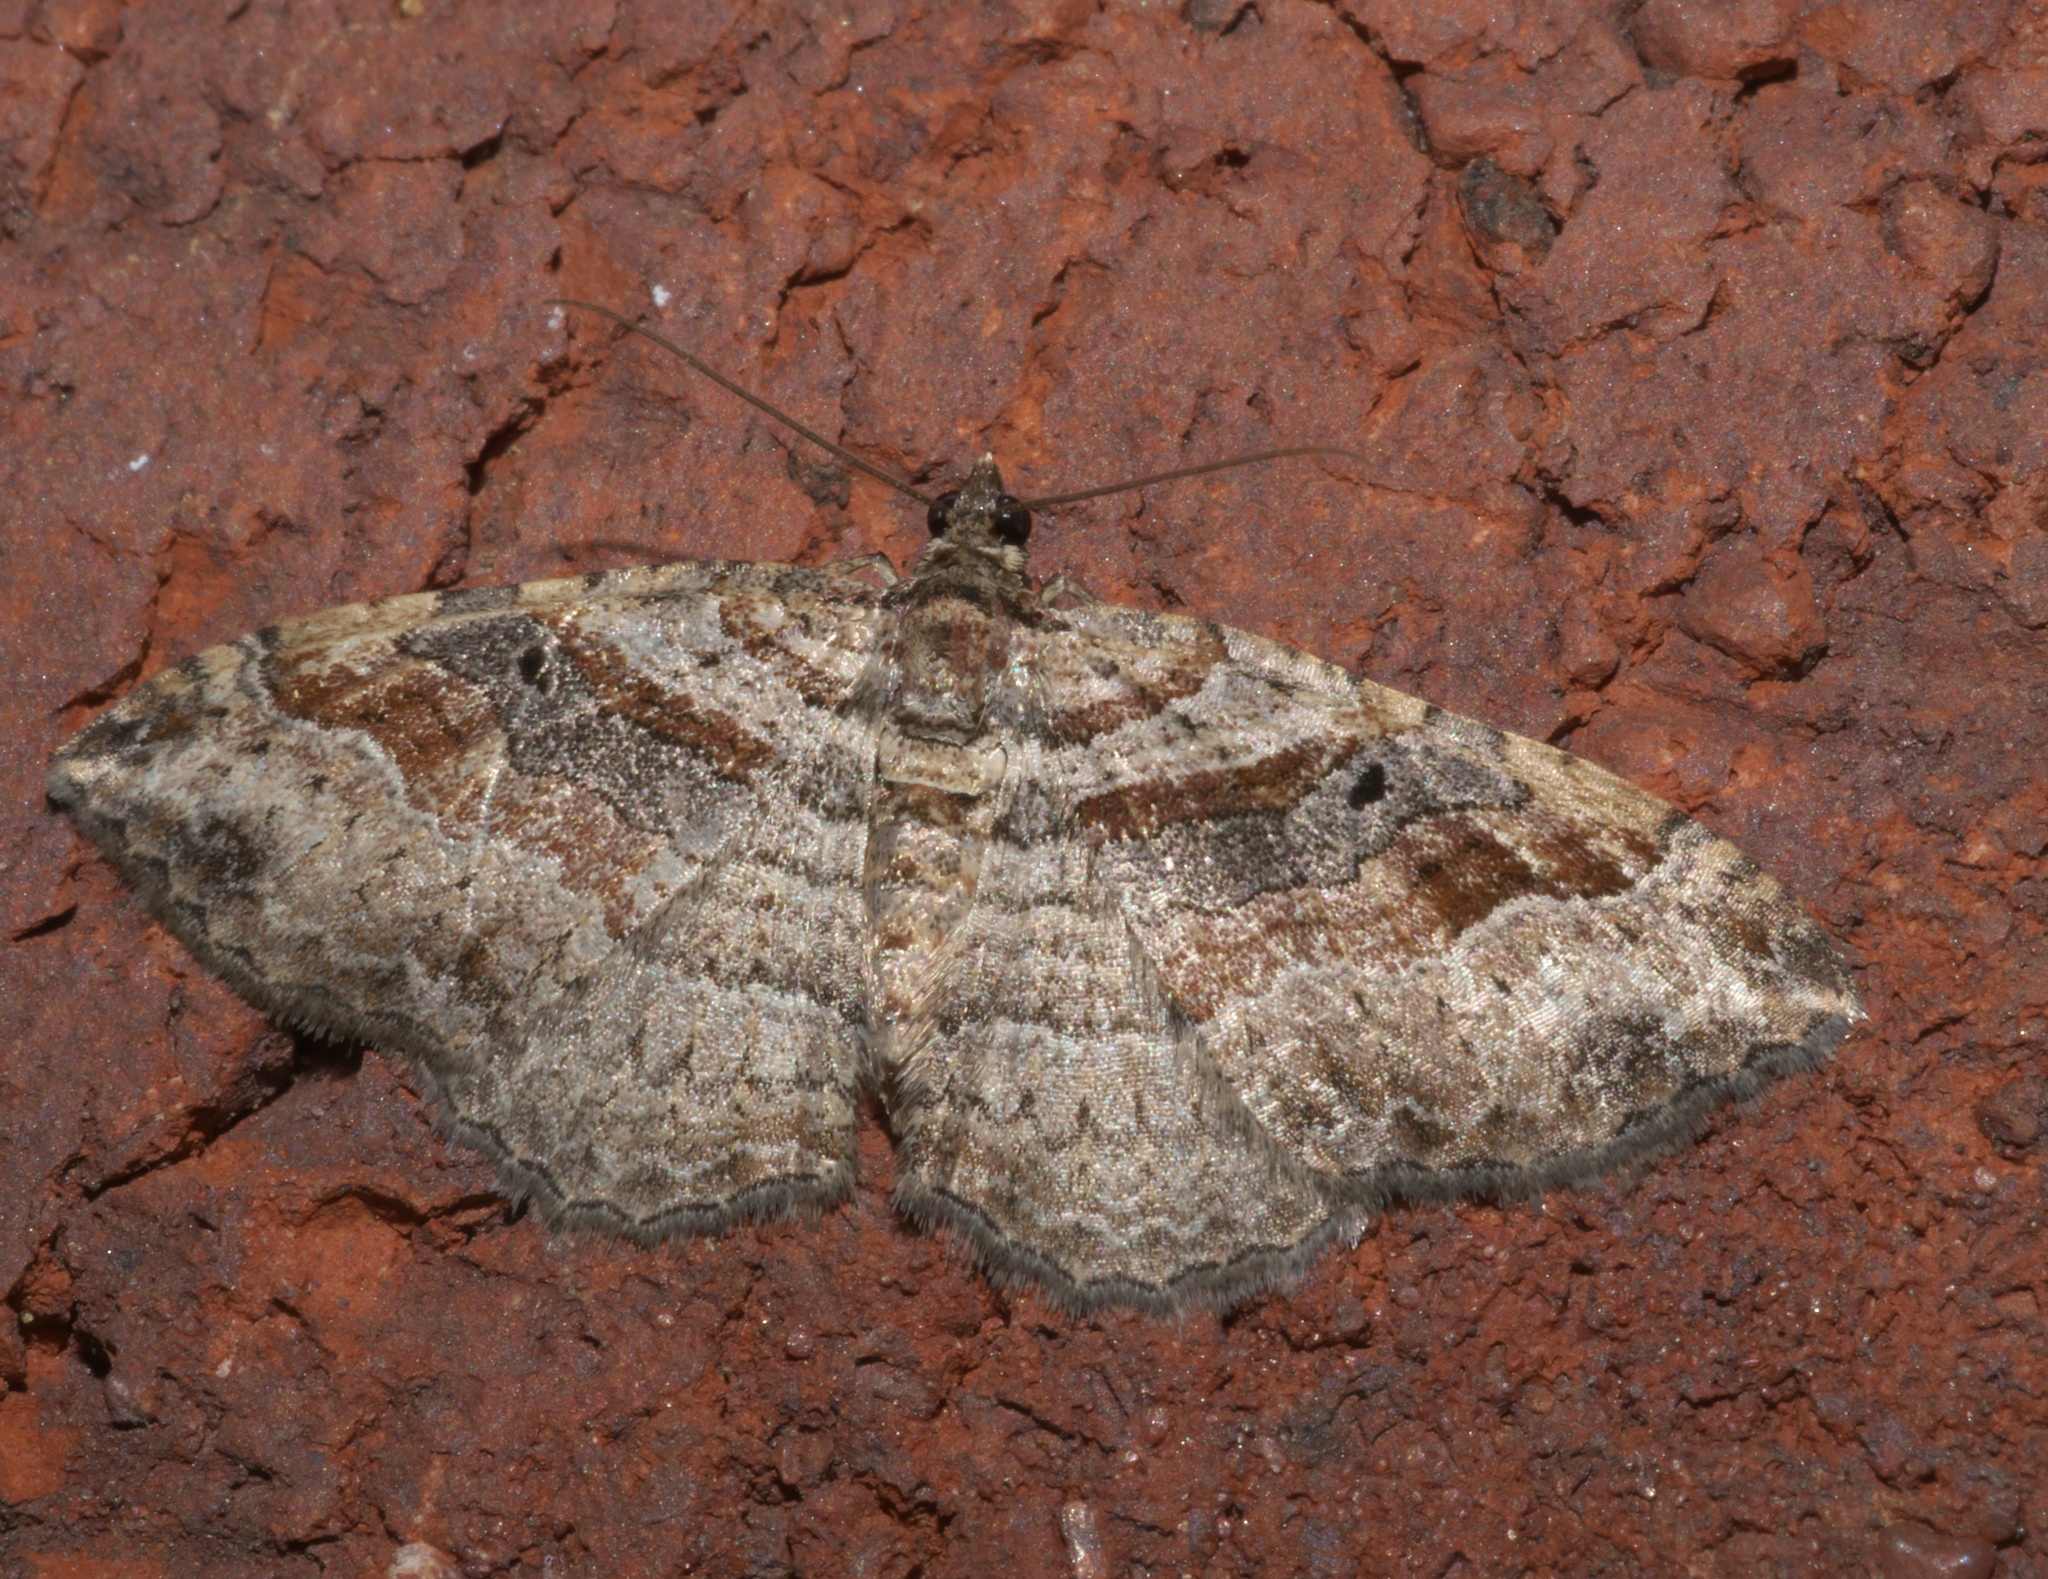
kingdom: Animalia
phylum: Arthropoda
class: Insecta
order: Lepidoptera
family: Geometridae
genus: Costaconvexa
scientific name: Costaconvexa centrostrigaria
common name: Bent-line carpet
